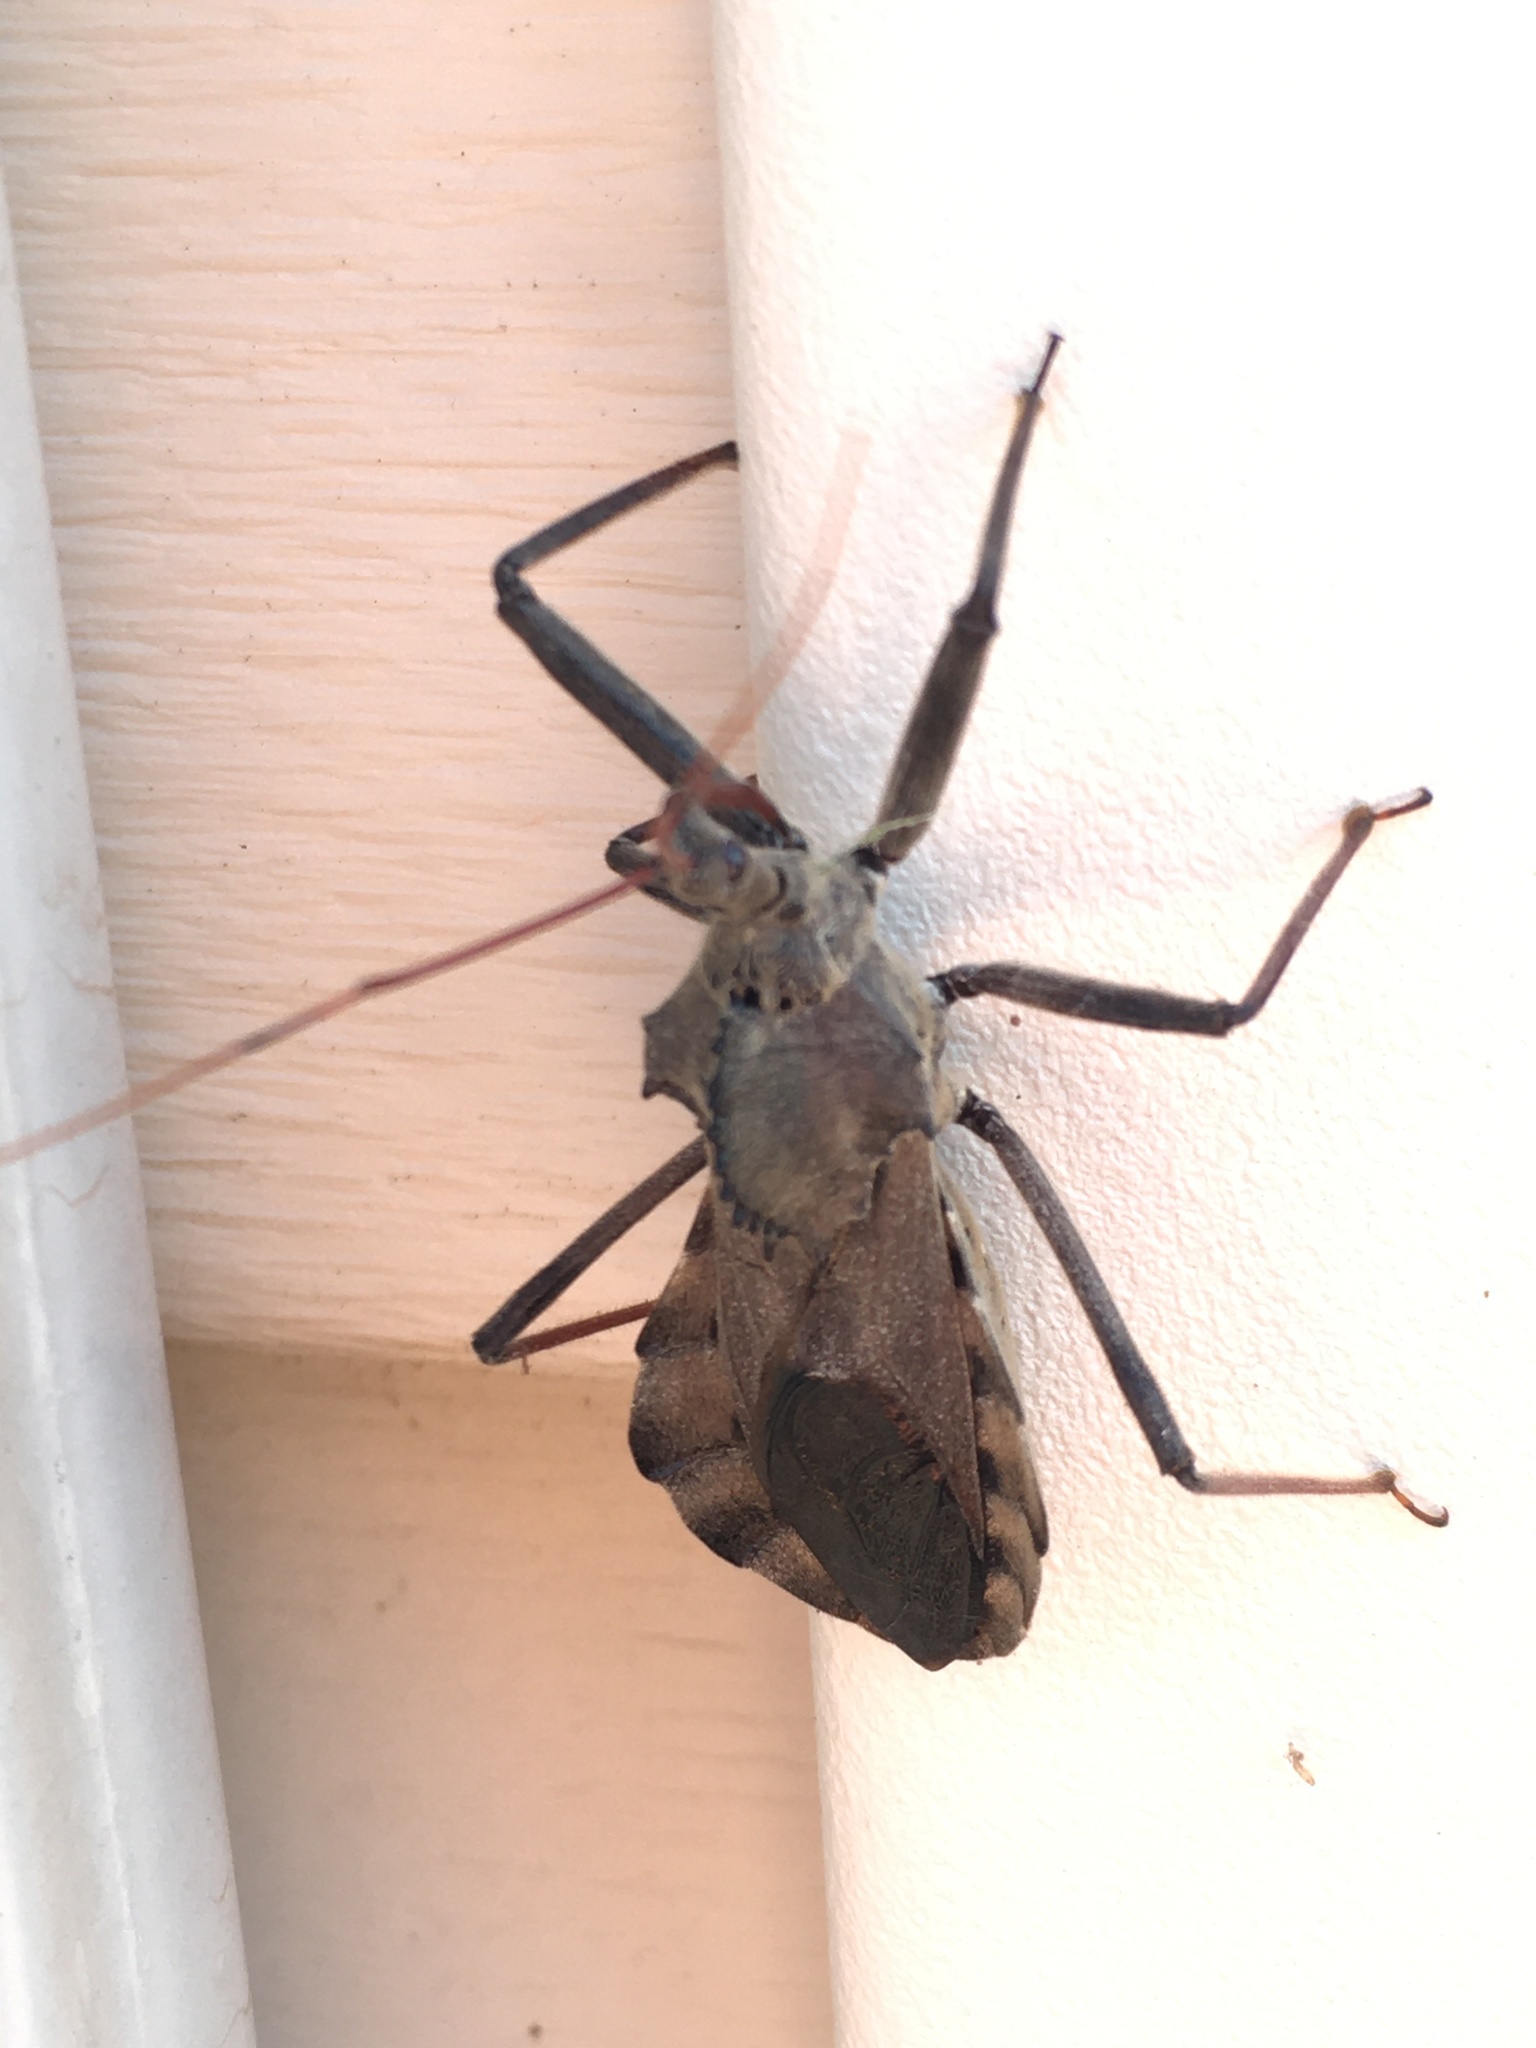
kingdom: Animalia
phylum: Arthropoda
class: Insecta
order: Hemiptera
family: Reduviidae
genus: Arilus
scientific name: Arilus cristatus
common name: North american wheel bug
